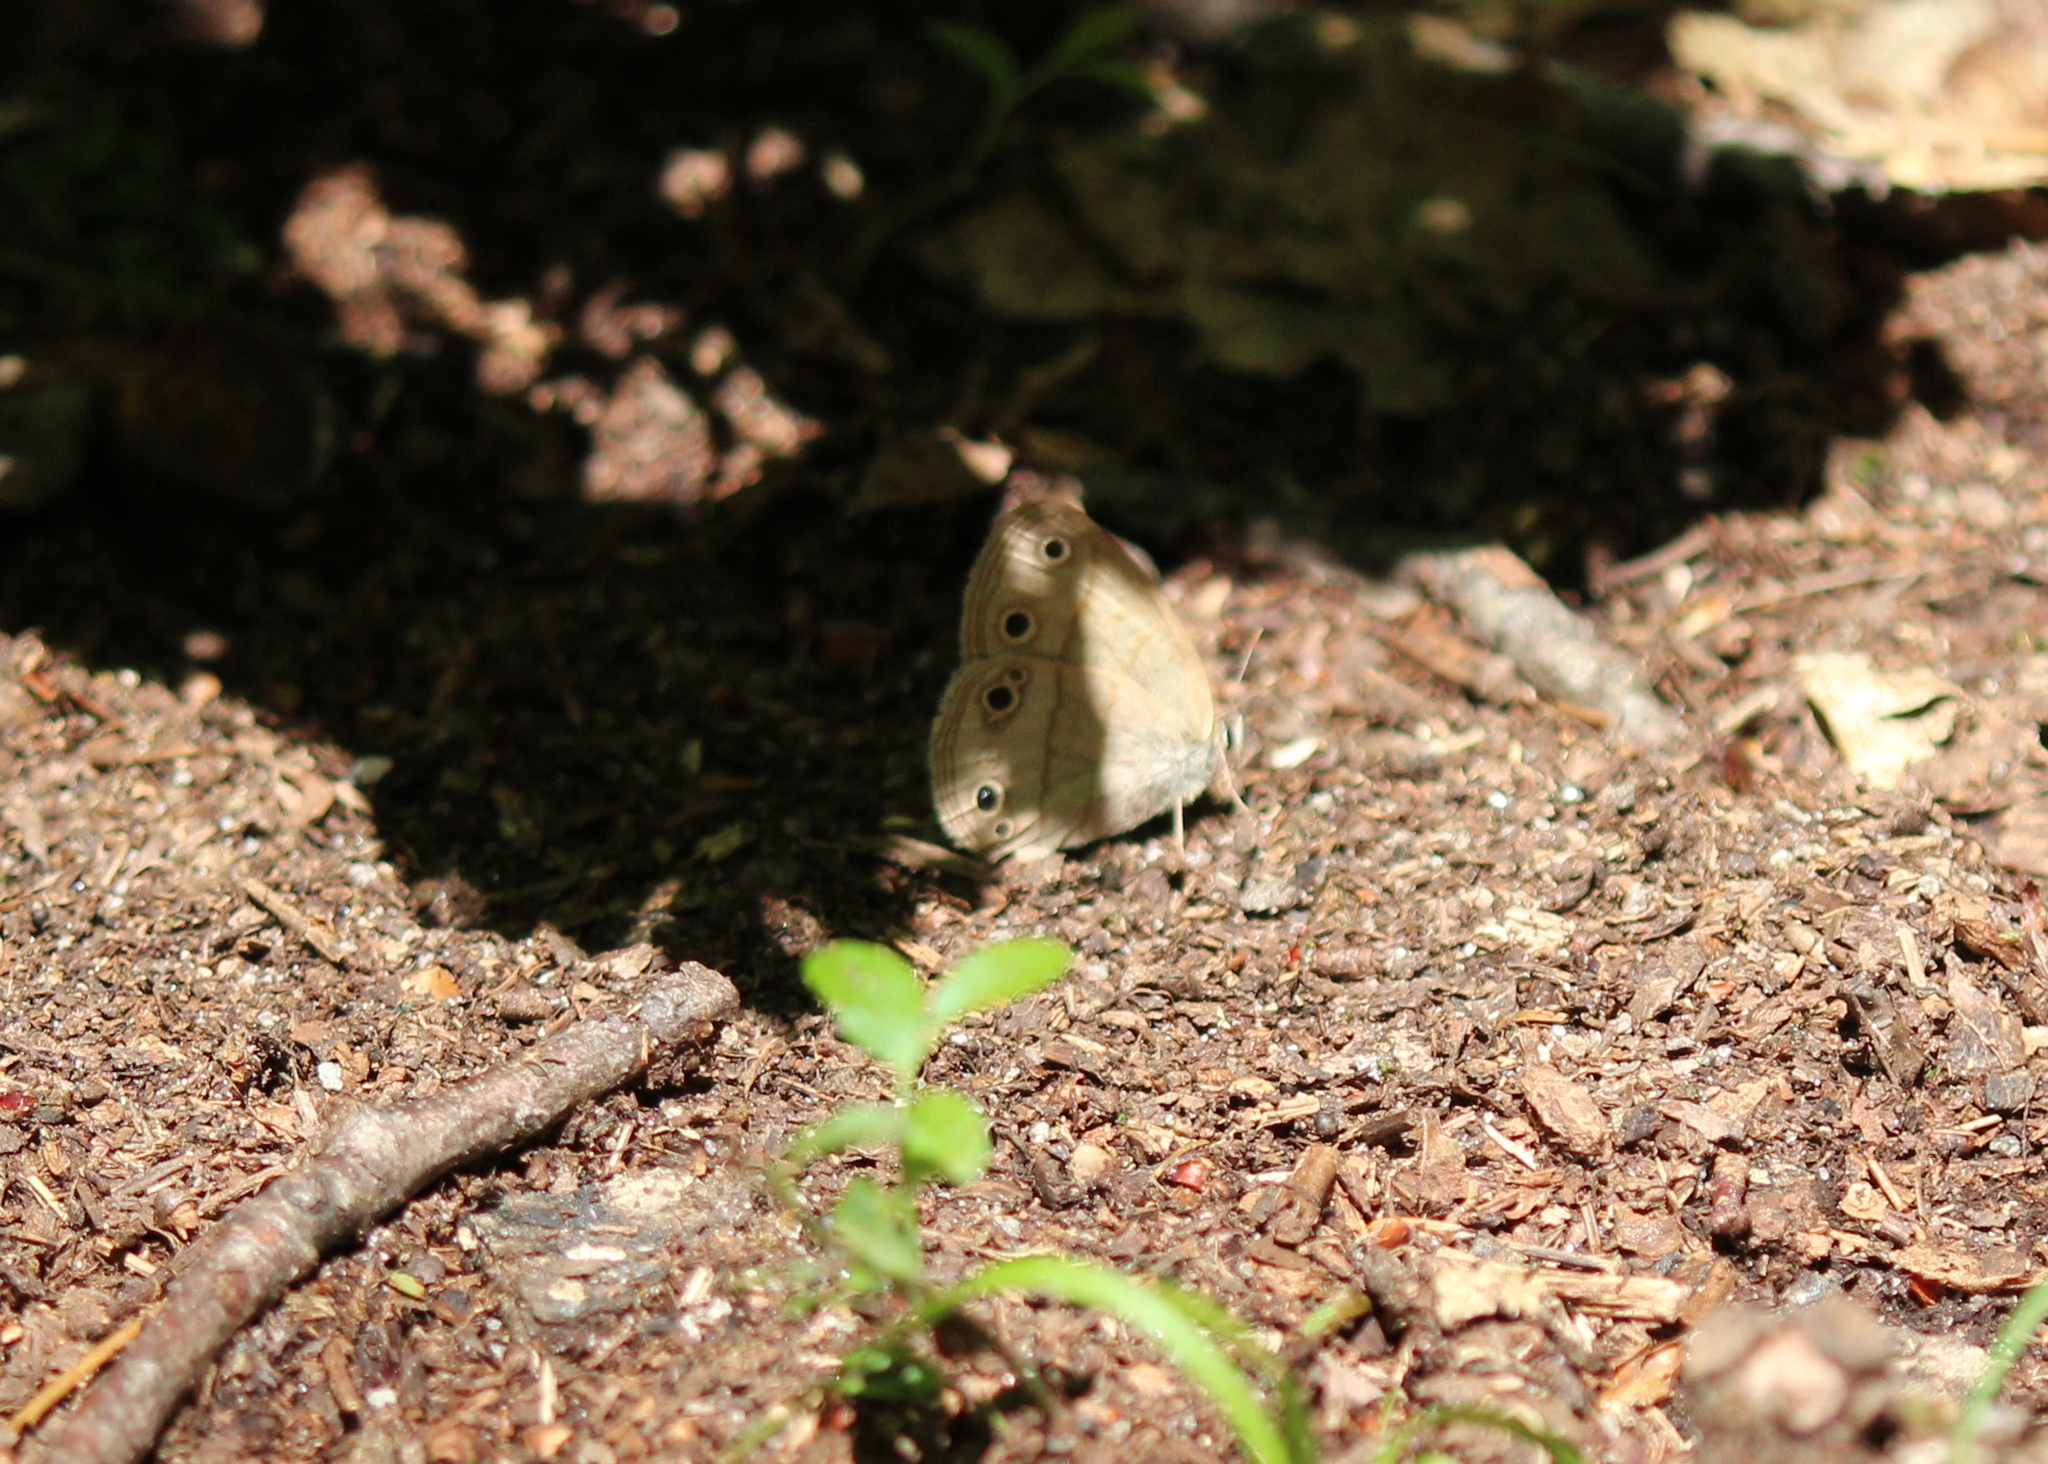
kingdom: Animalia
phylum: Arthropoda
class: Insecta
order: Lepidoptera
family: Nymphalidae
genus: Euptychia
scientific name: Euptychia cymela
